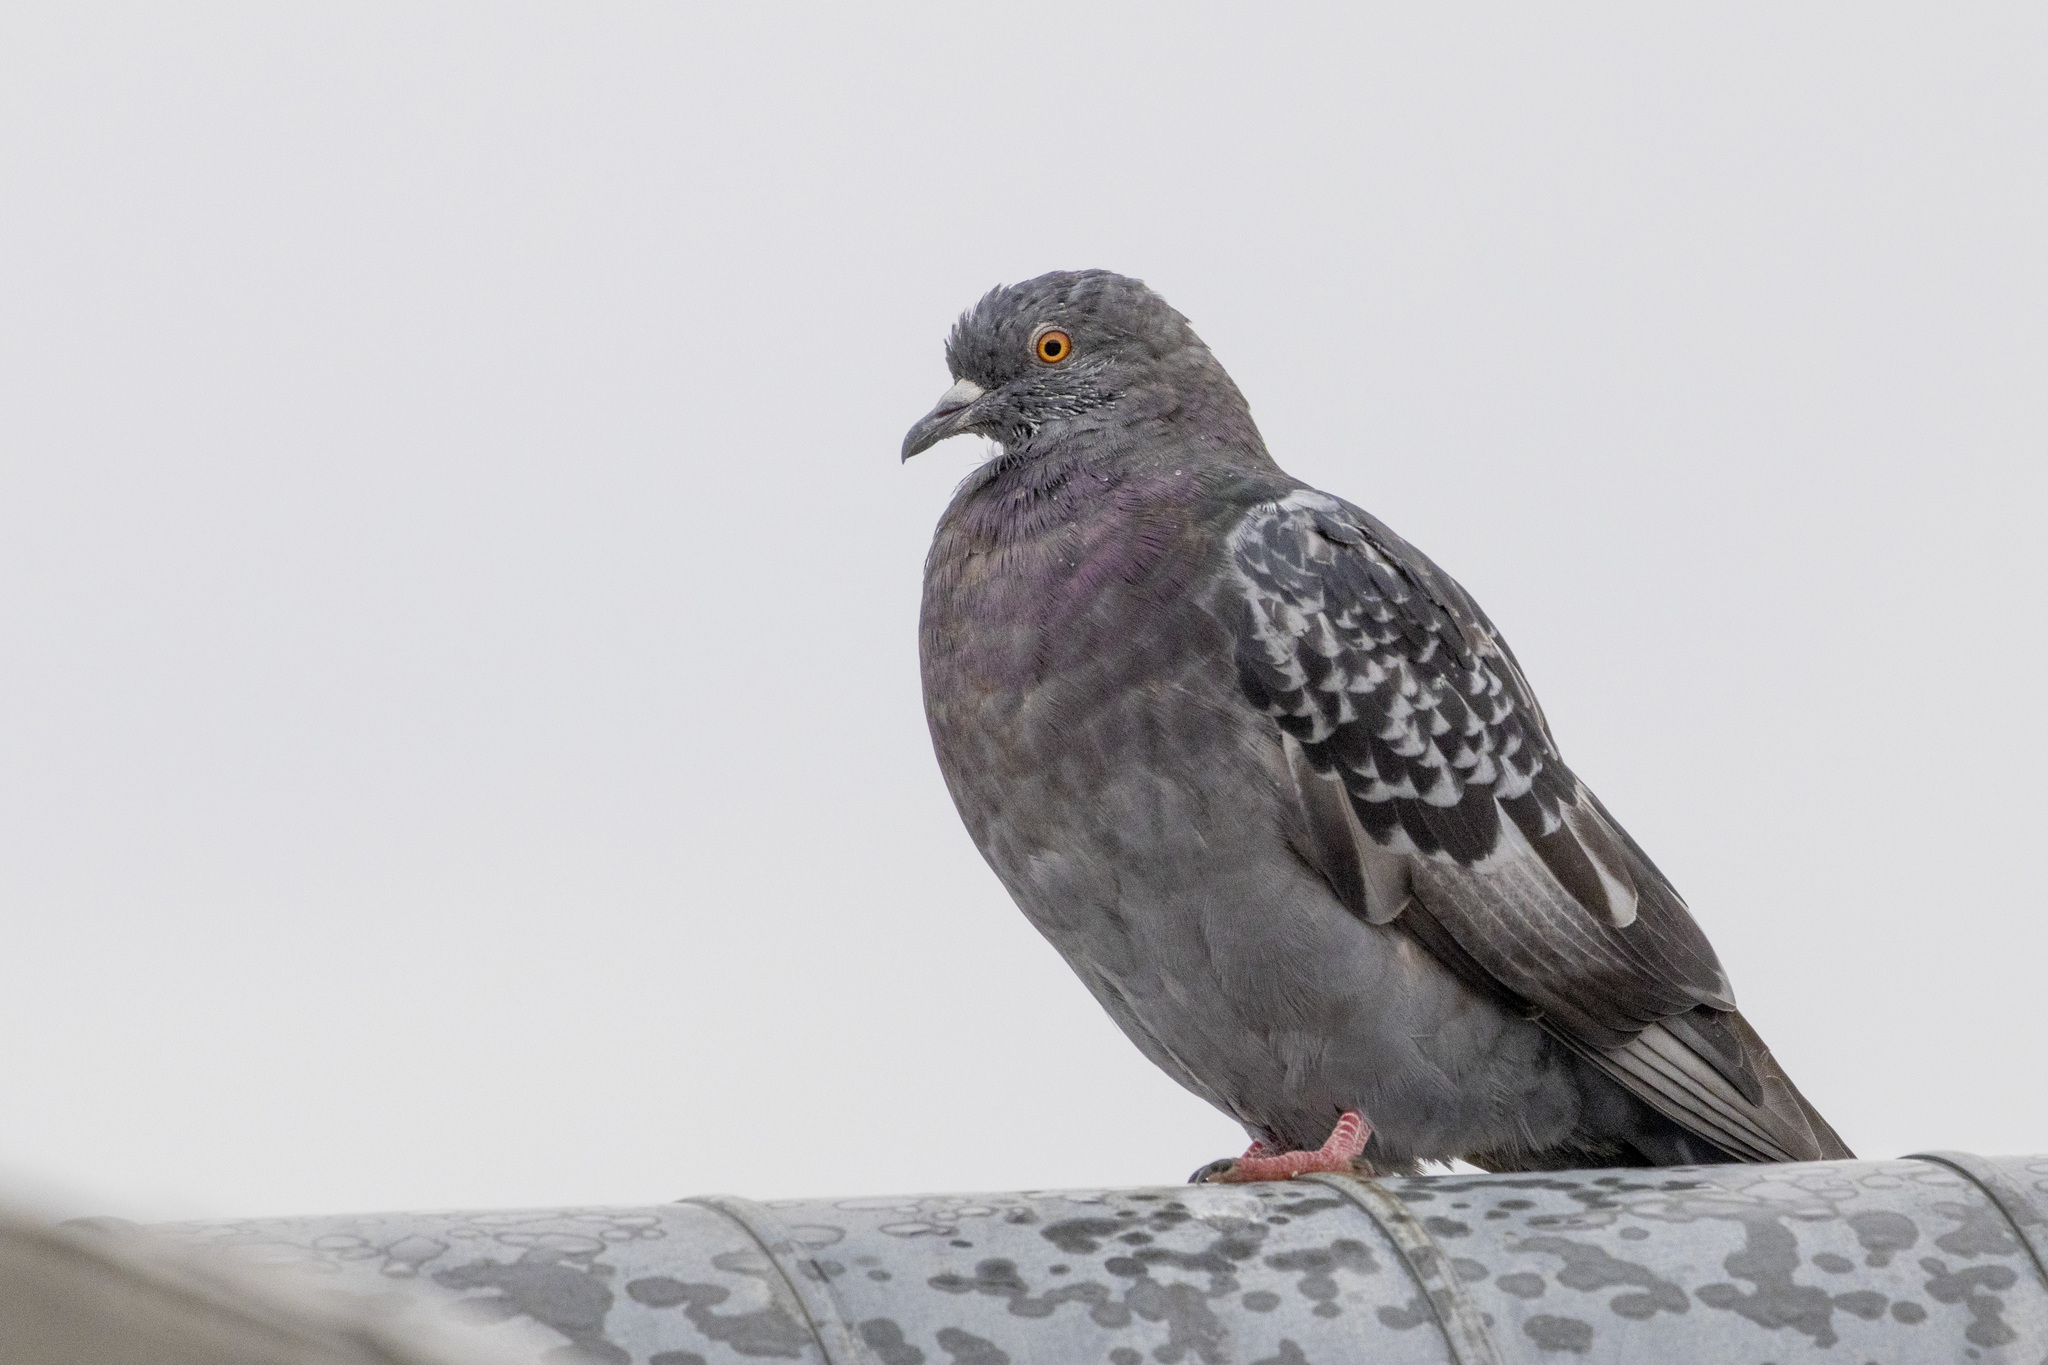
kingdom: Animalia
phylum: Chordata
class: Aves
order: Columbiformes
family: Columbidae
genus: Columba
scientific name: Columba livia
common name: Rock pigeon
